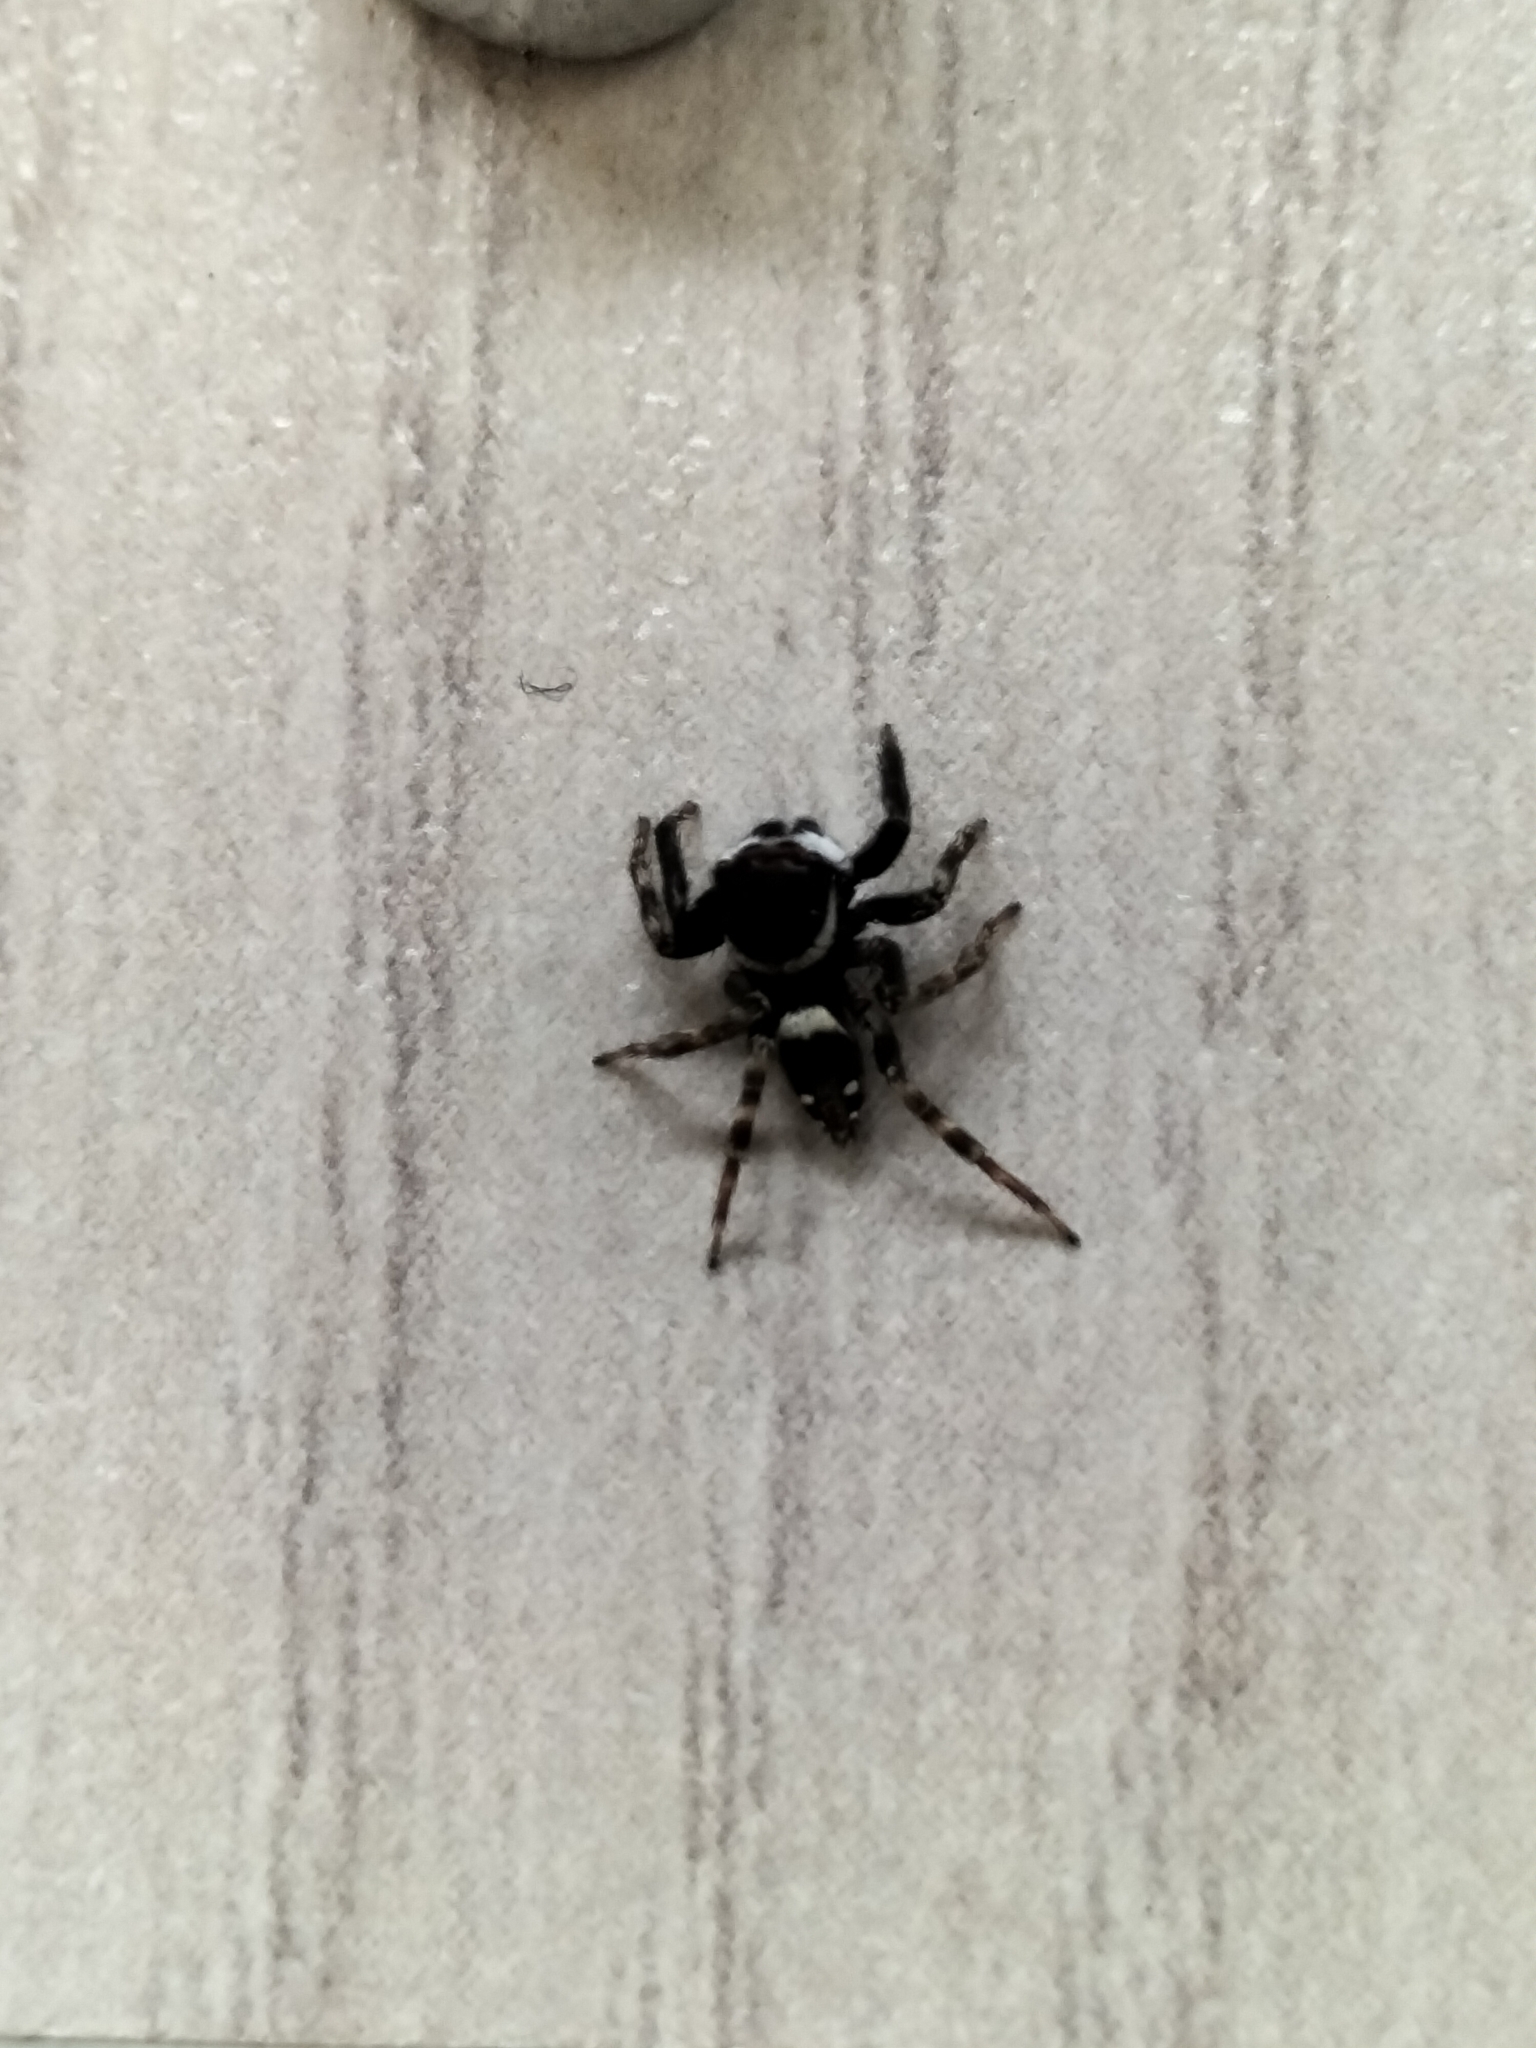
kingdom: Animalia
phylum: Arthropoda
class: Arachnida
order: Araneae
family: Salticidae
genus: Hasarius
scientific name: Hasarius adansoni
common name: Jumping spider
